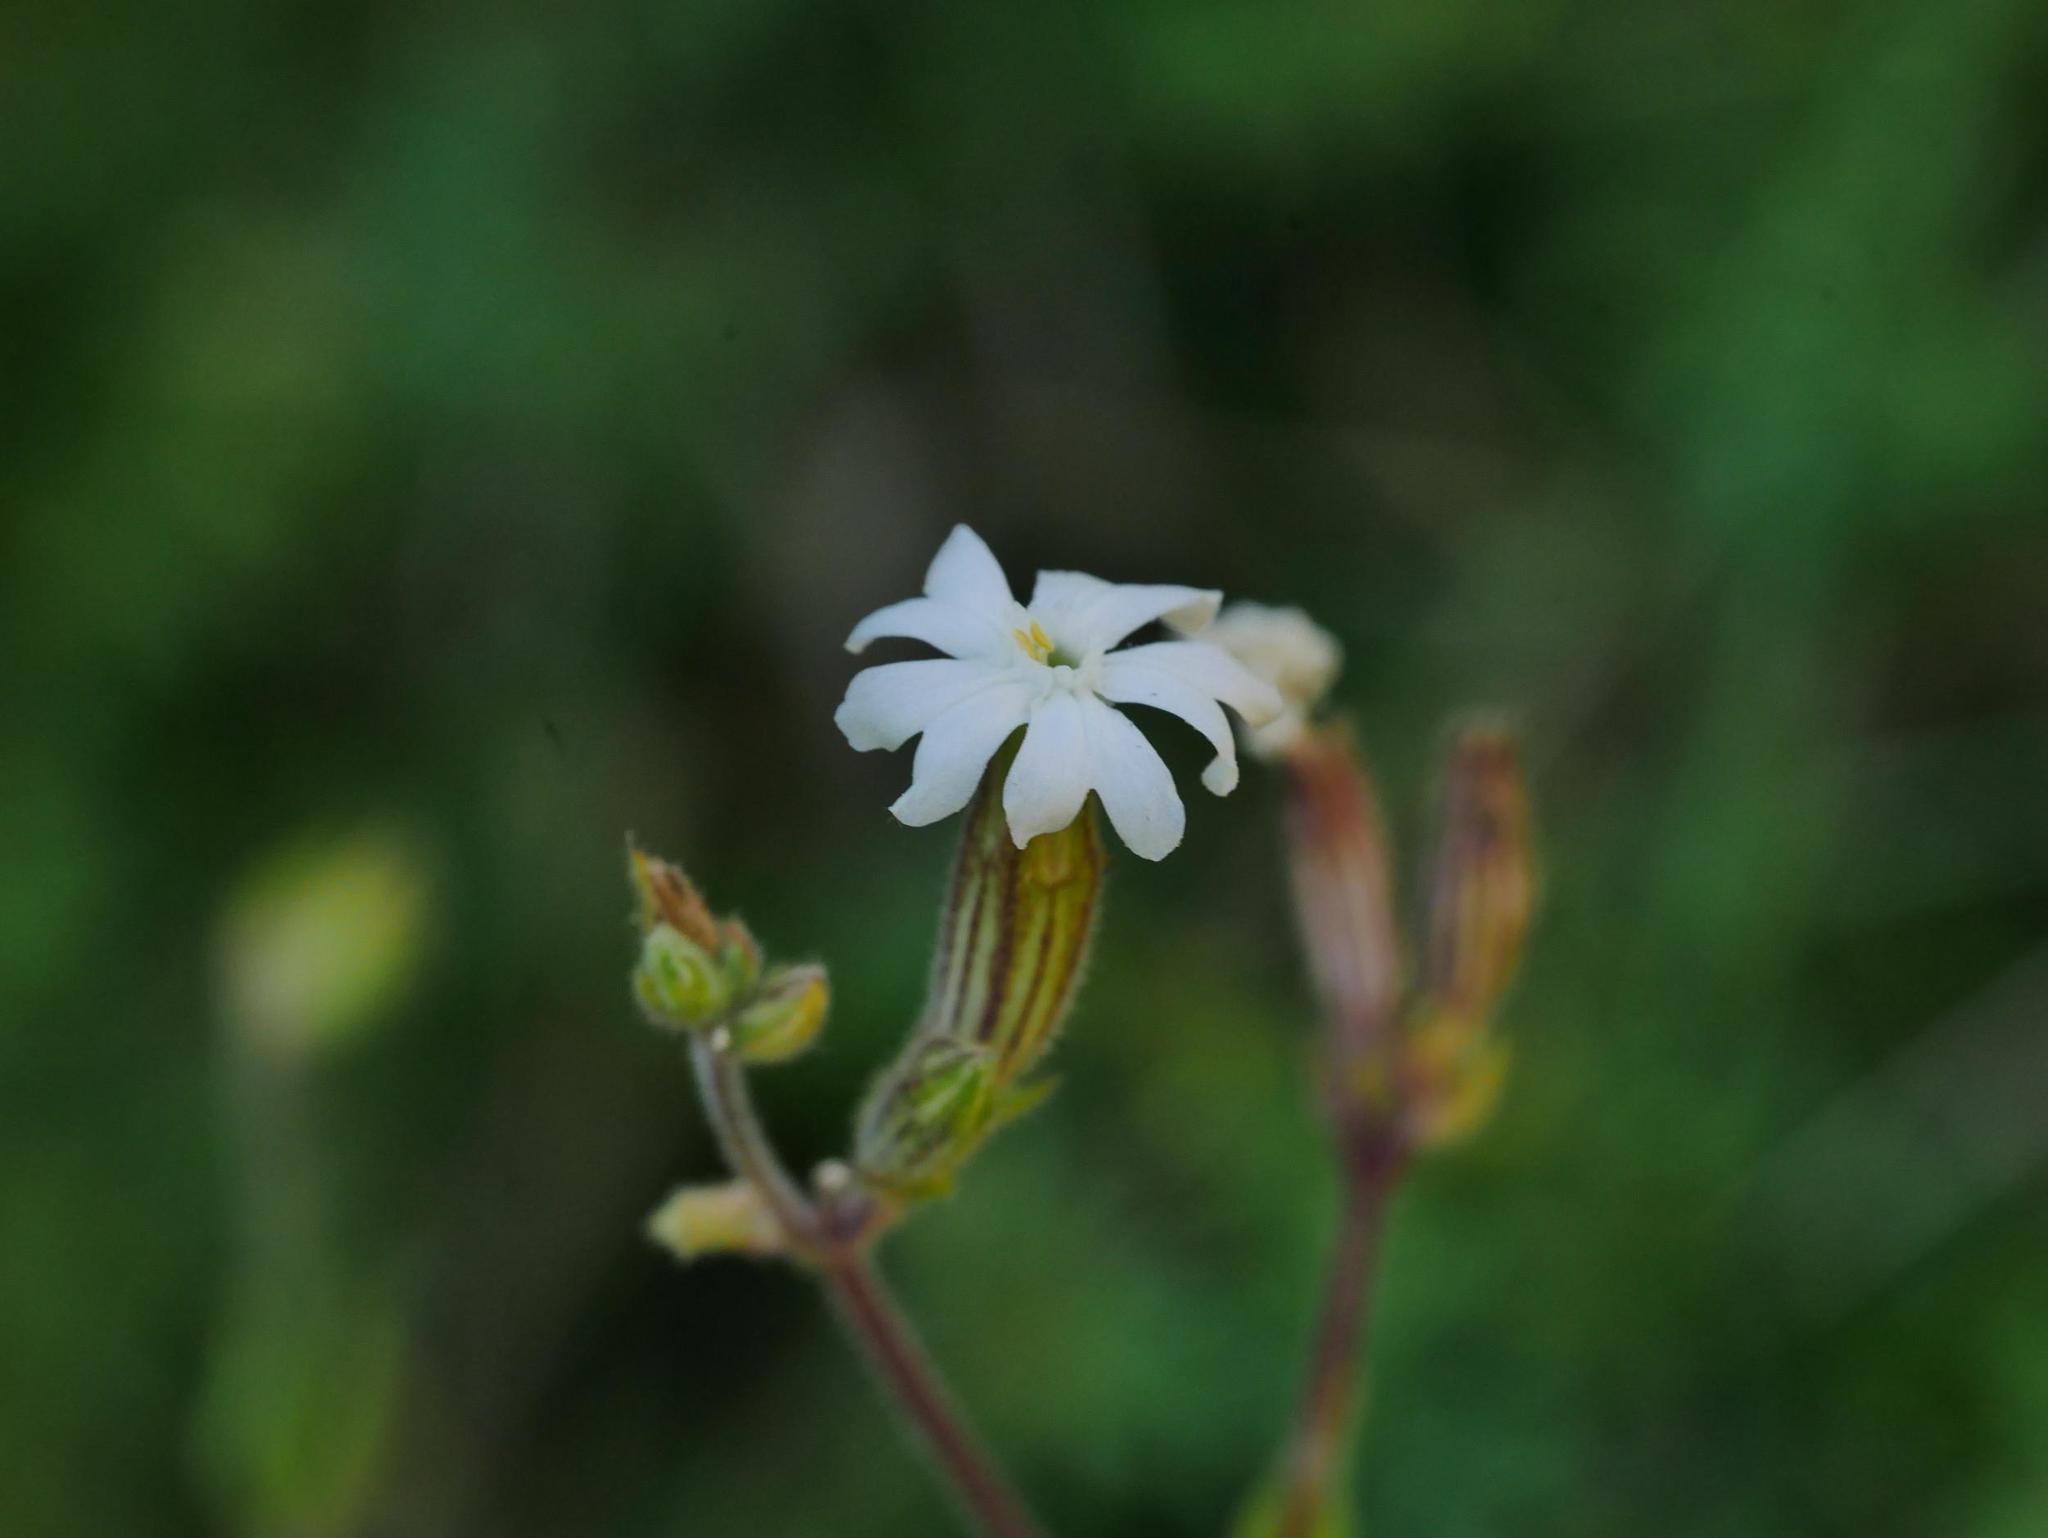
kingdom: Plantae
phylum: Tracheophyta
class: Magnoliopsida
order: Caryophyllales
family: Caryophyllaceae
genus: Silene
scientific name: Silene latifolia
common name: White campion
